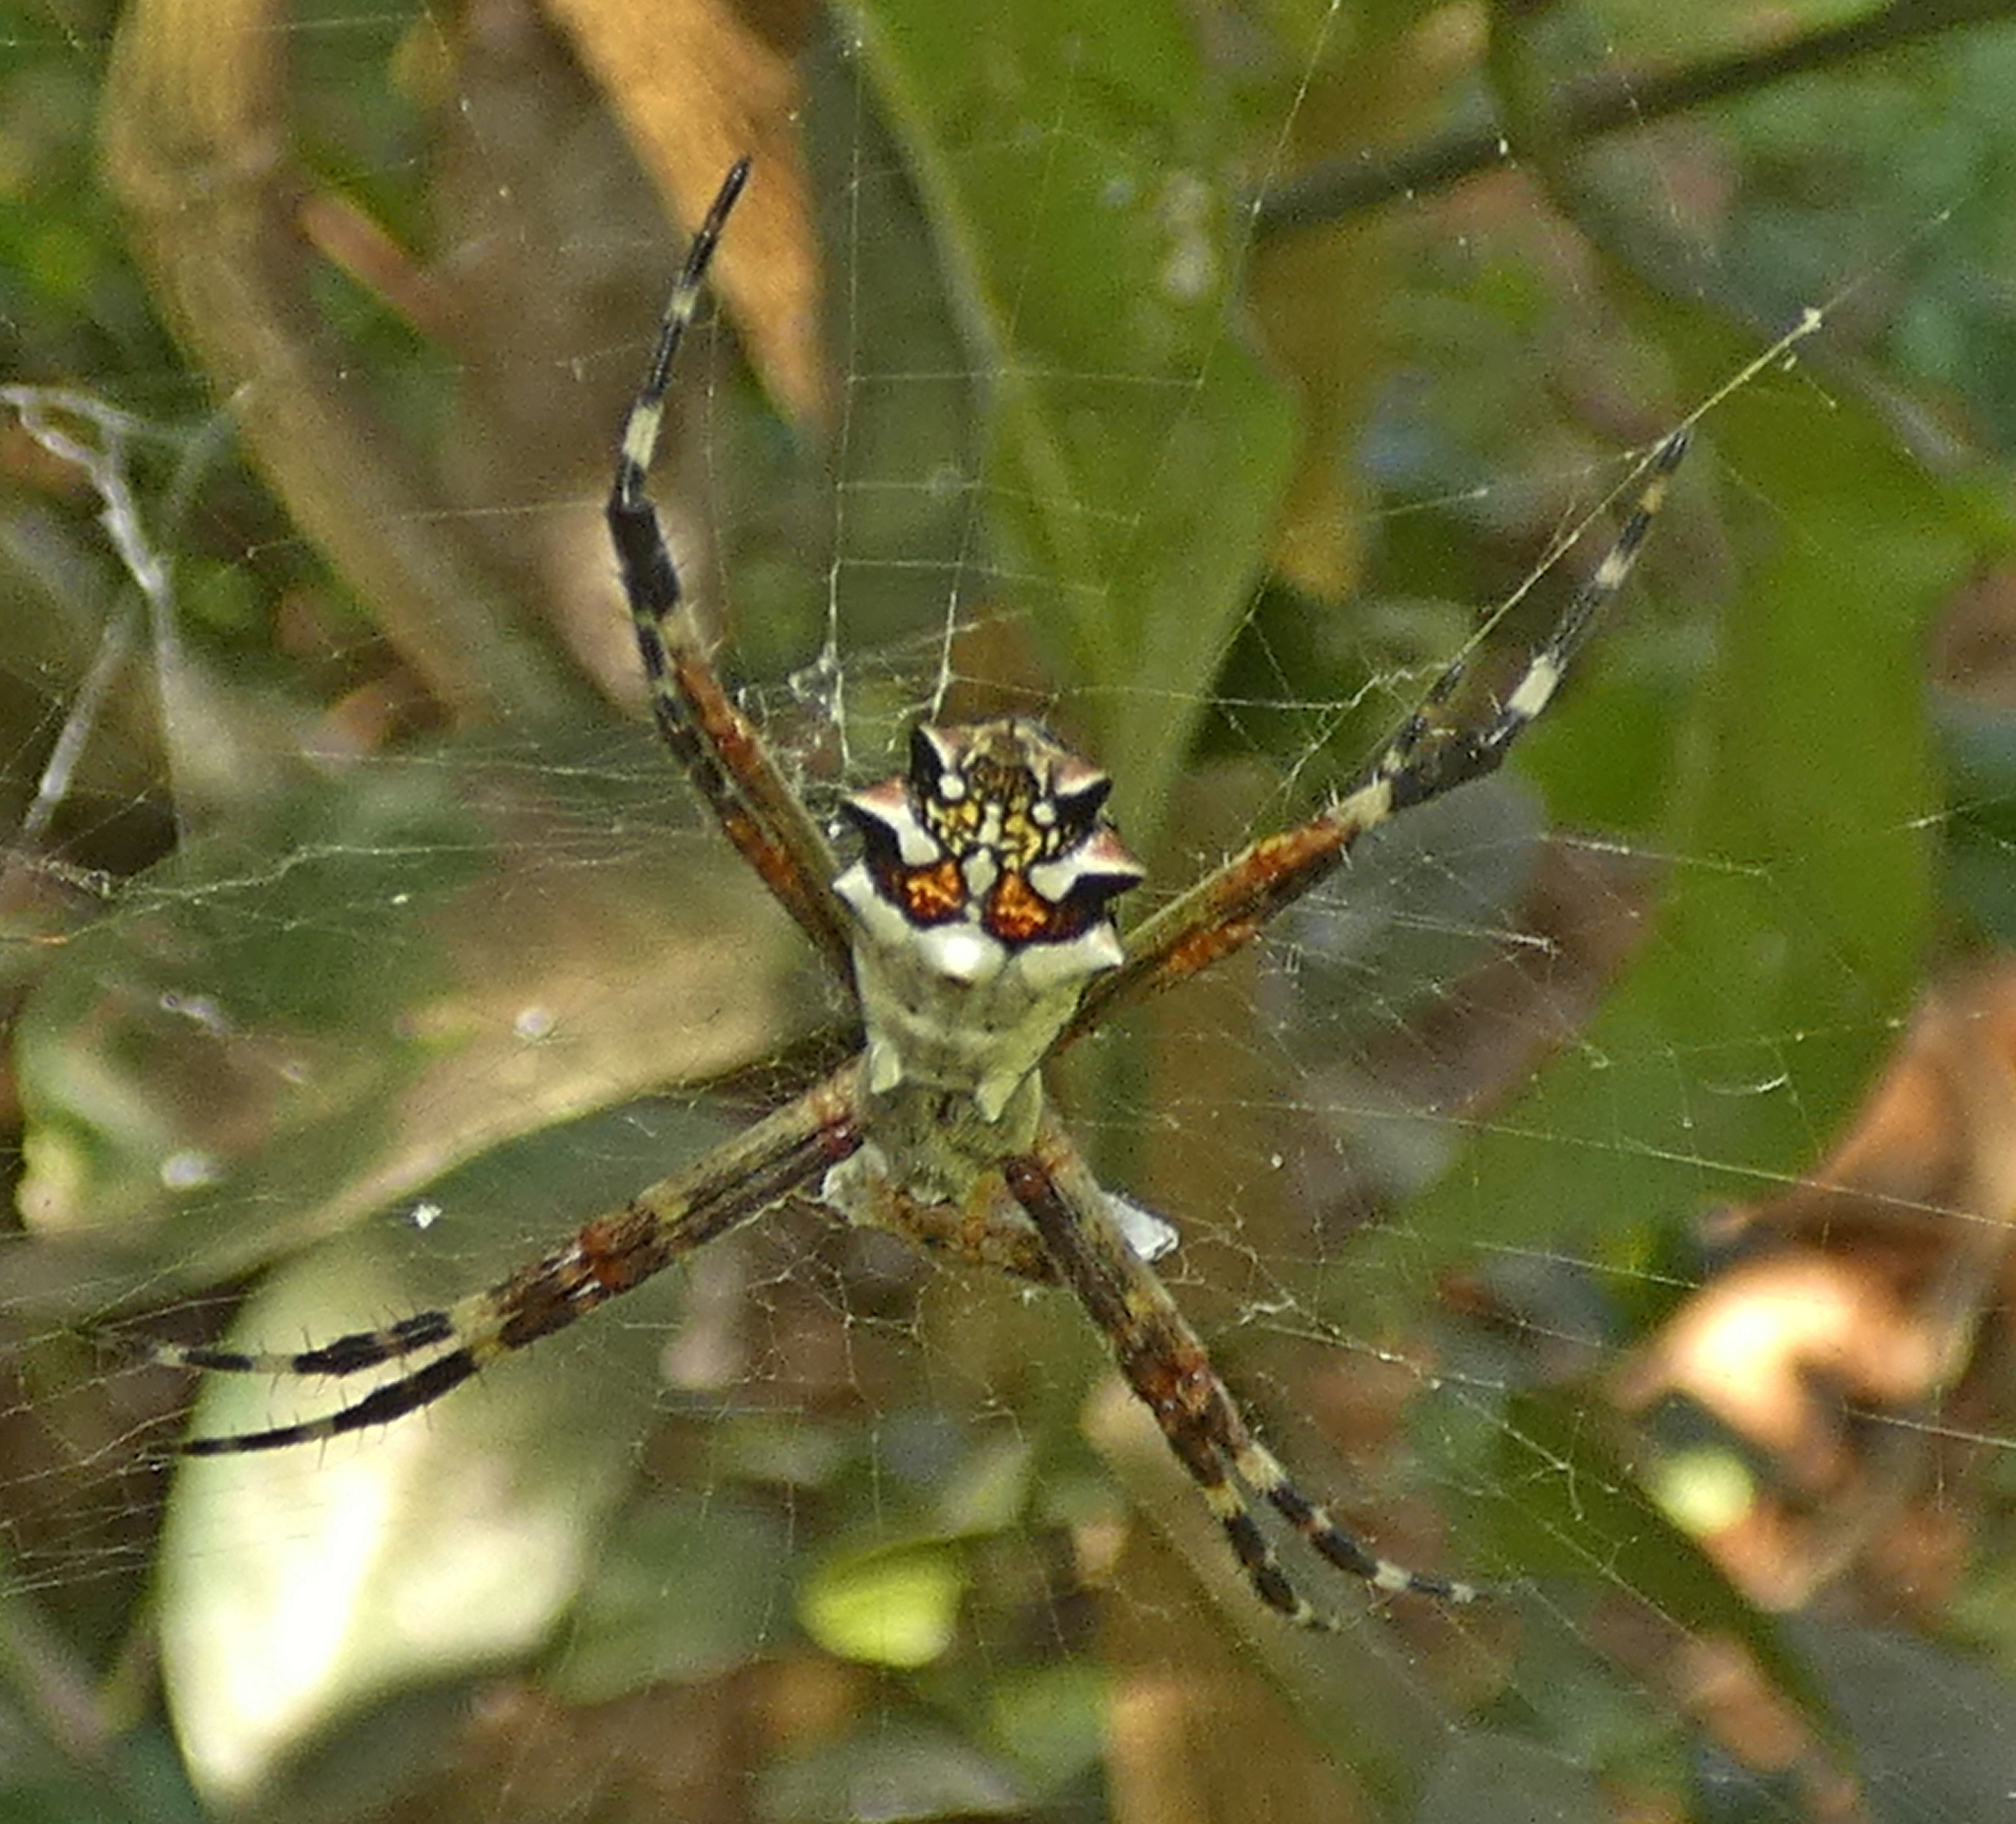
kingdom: Animalia
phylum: Arthropoda
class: Arachnida
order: Araneae
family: Araneidae
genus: Argiope
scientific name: Argiope argentata
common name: Orb weavers
